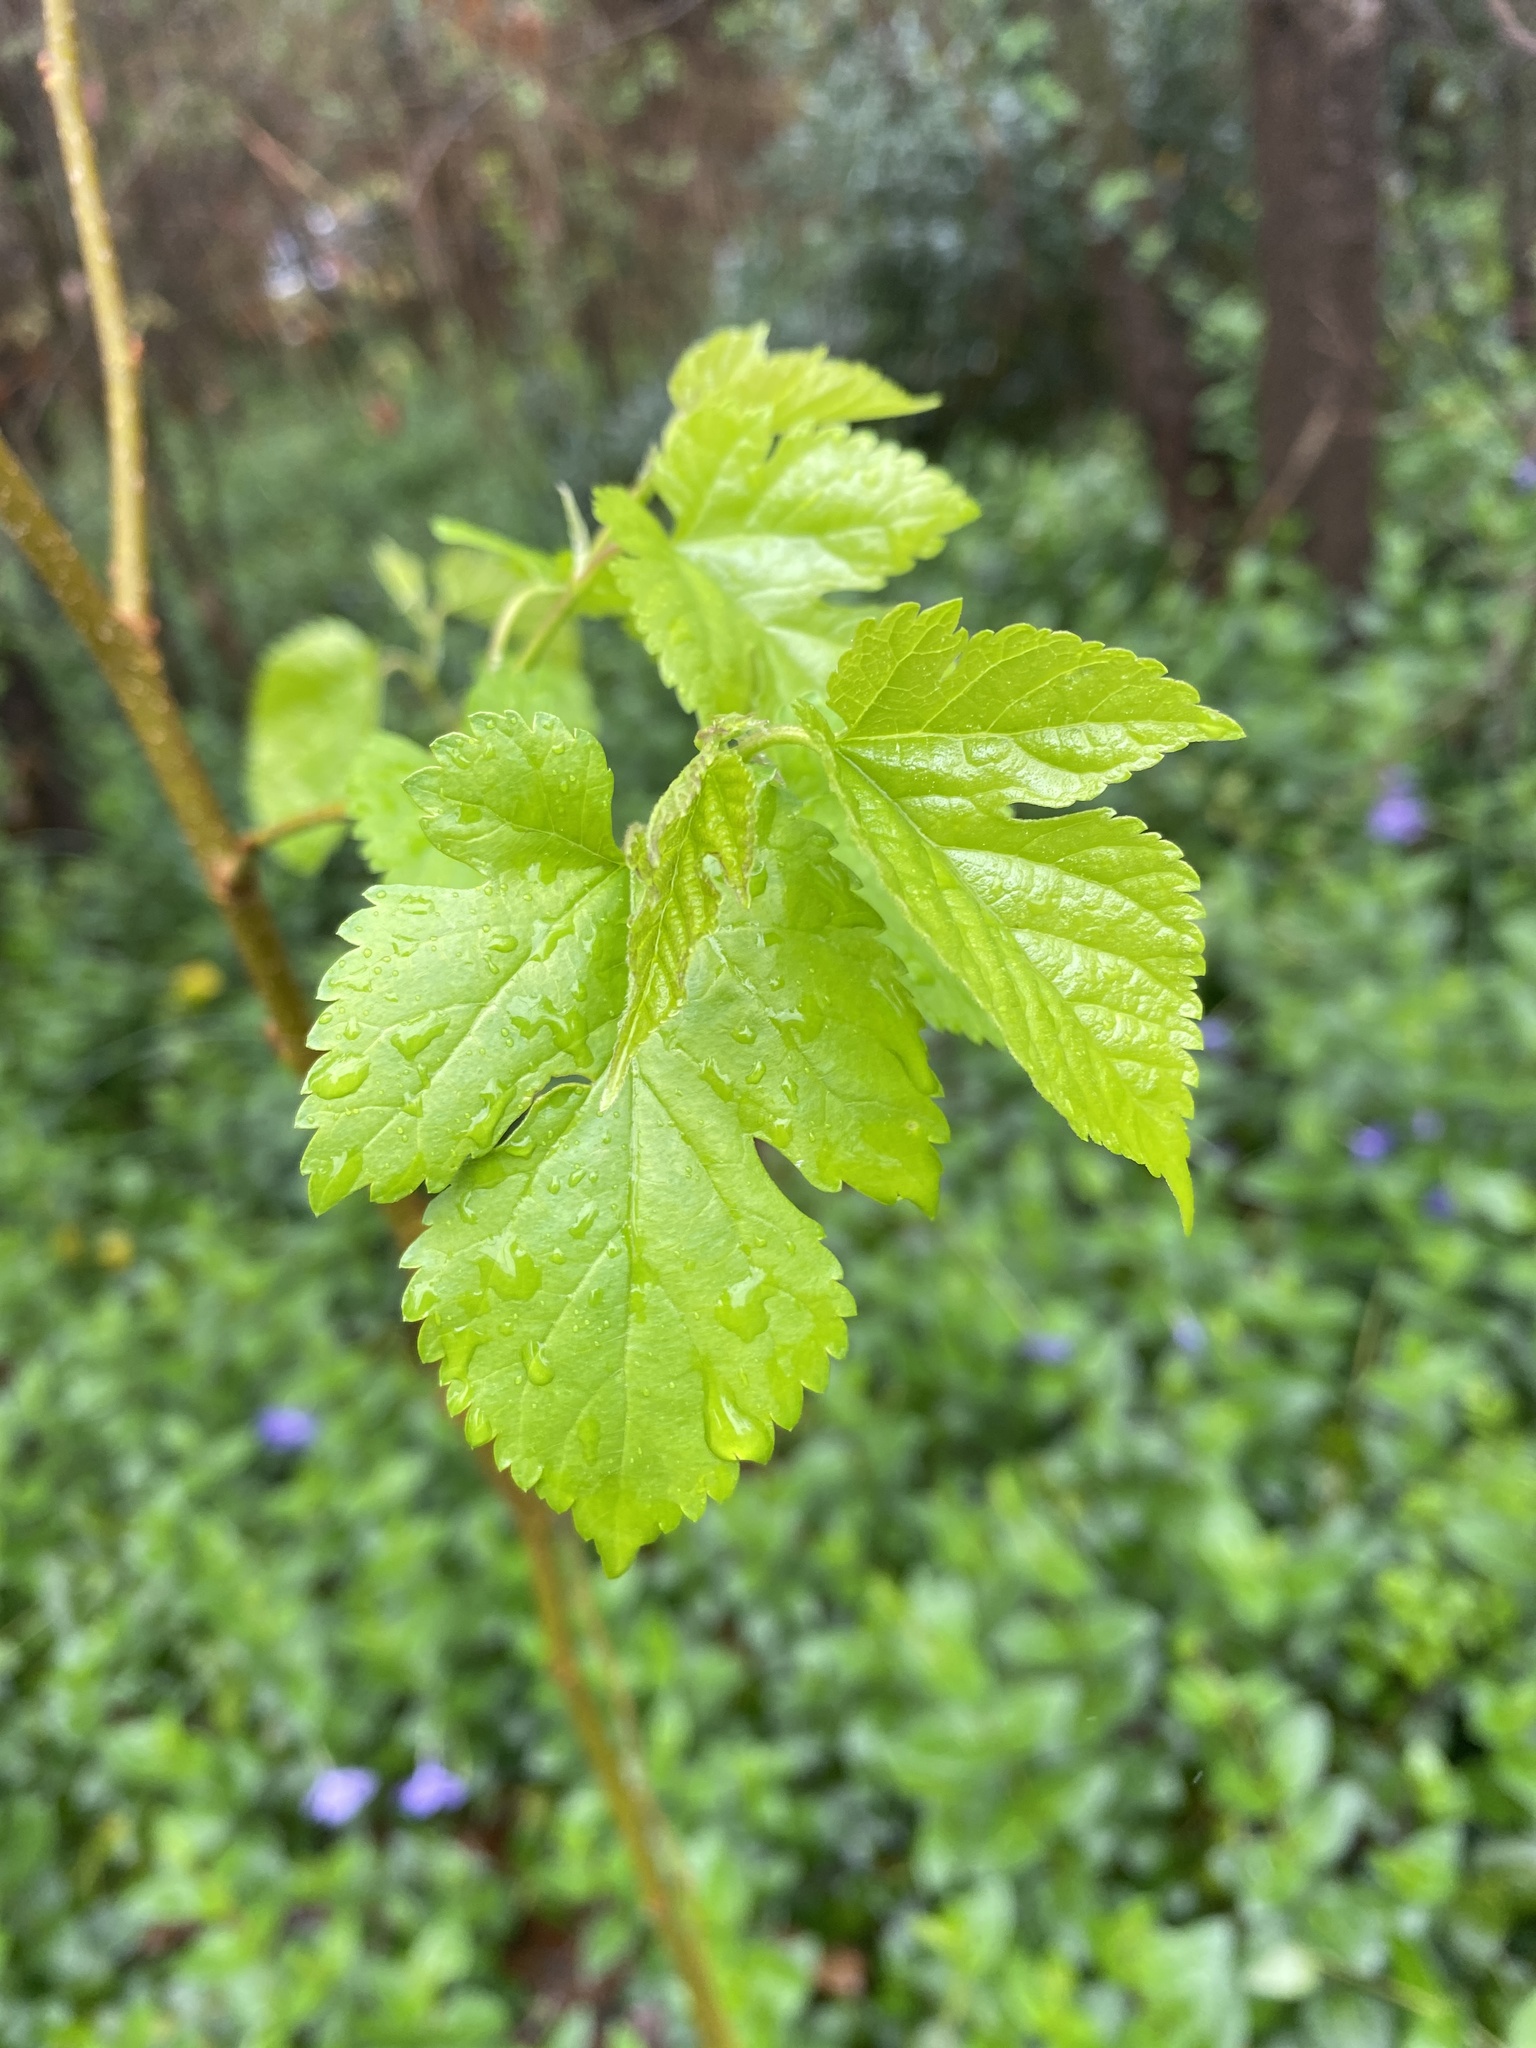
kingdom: Plantae
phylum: Tracheophyta
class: Magnoliopsida
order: Rosales
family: Moraceae
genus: Morus
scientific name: Morus alba
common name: White mulberry
